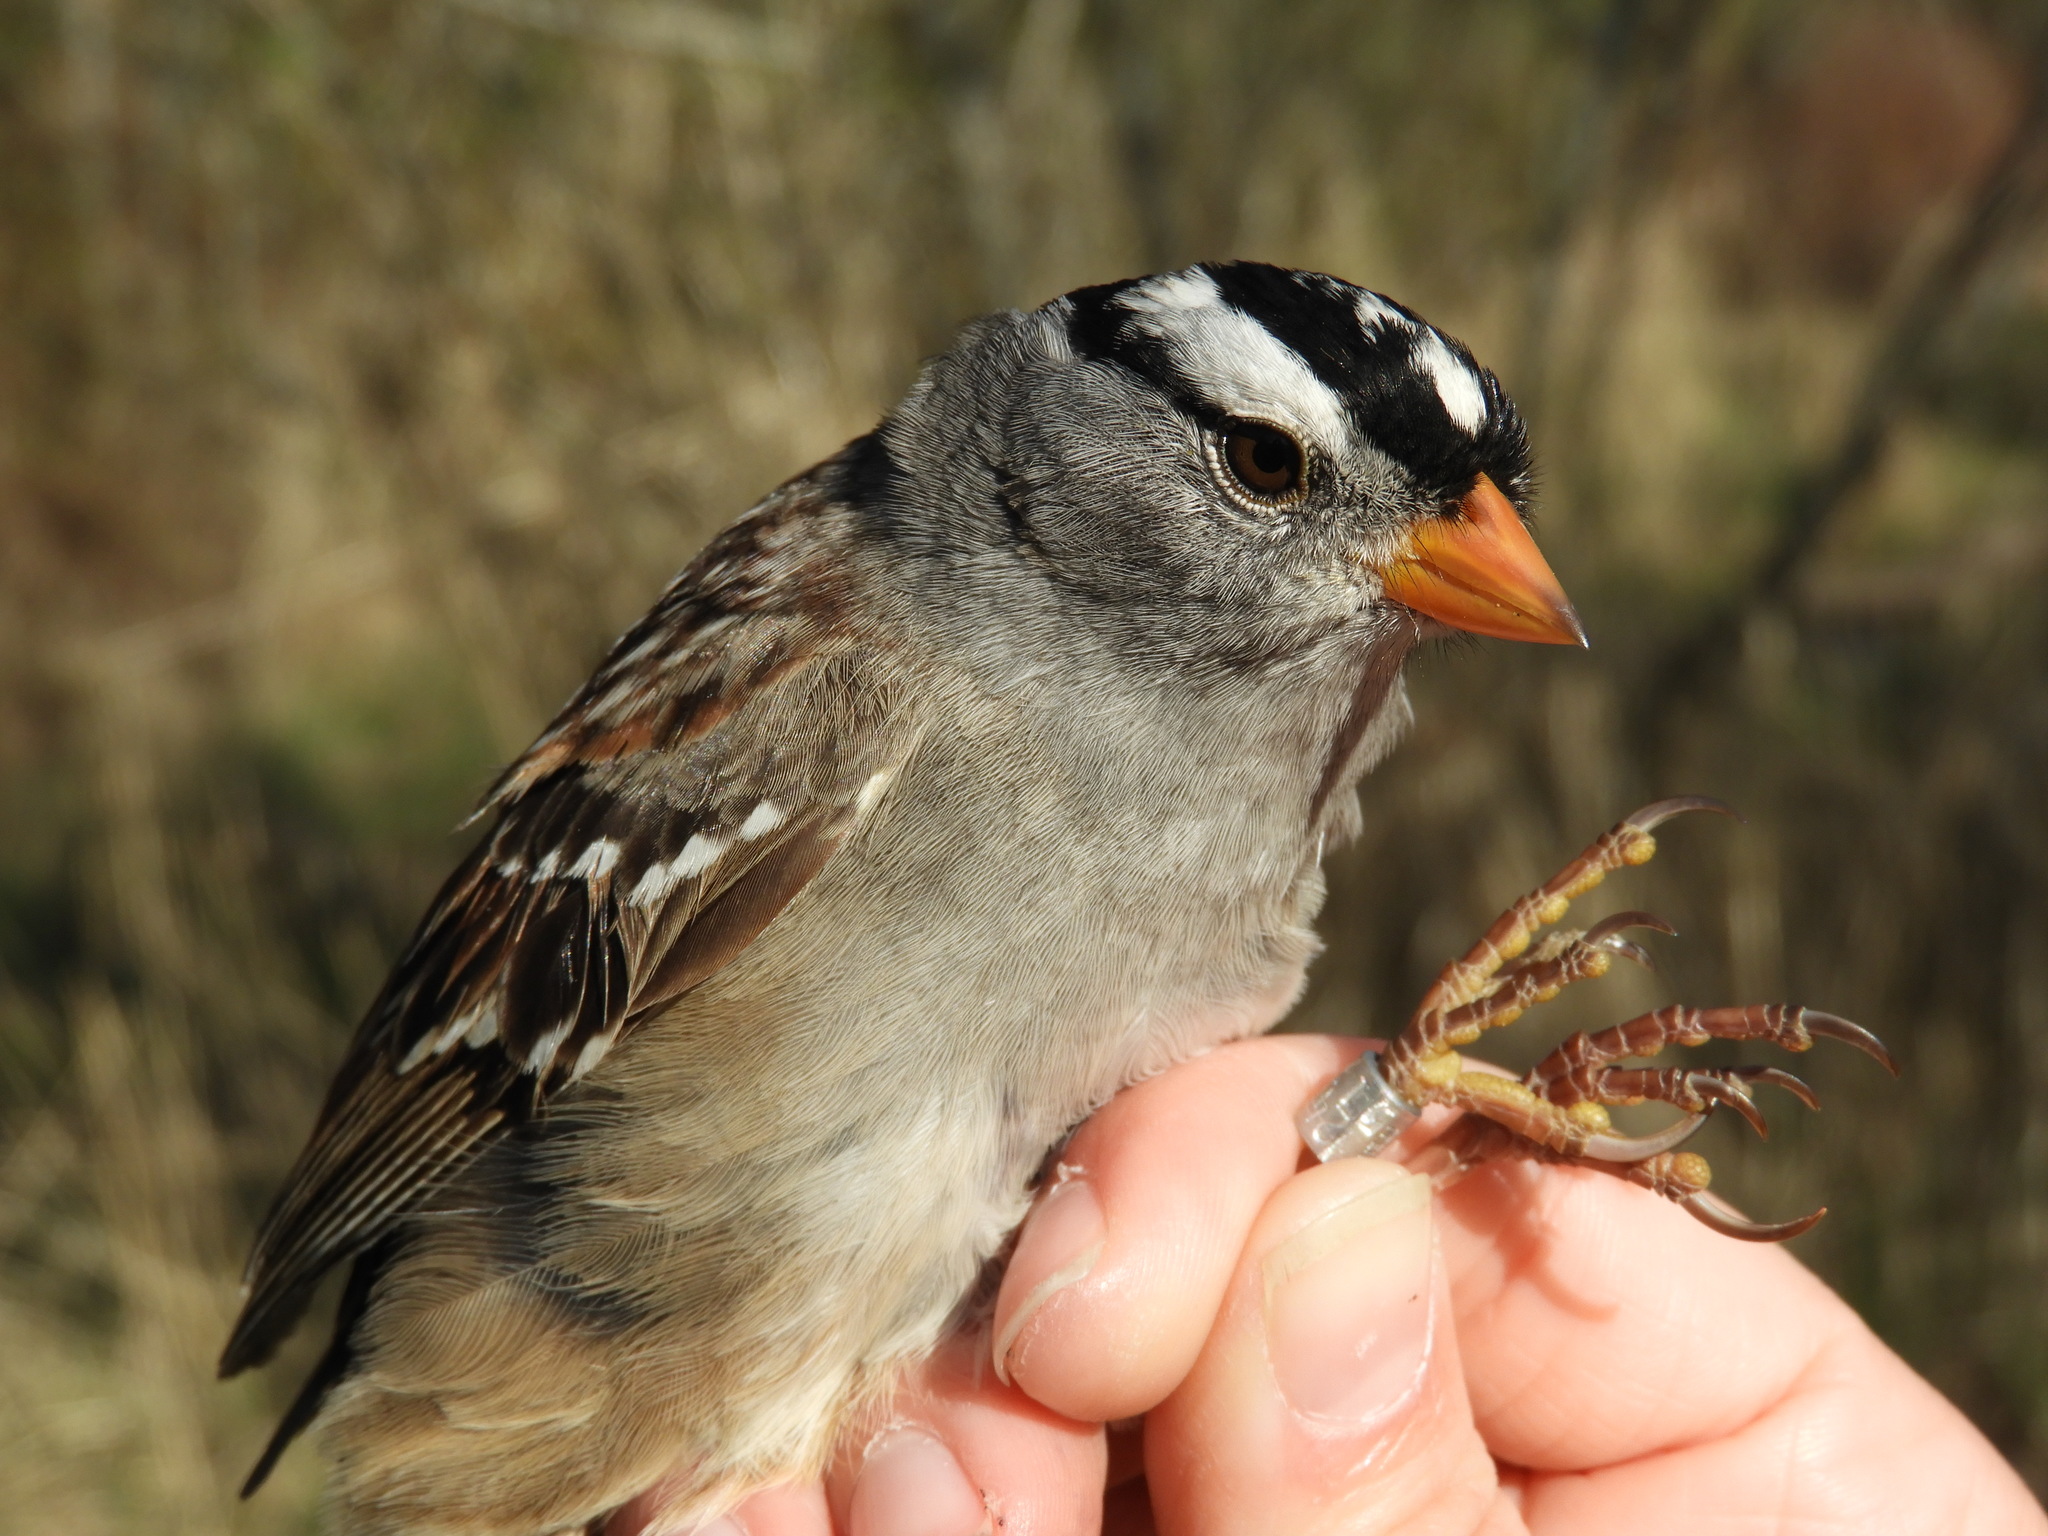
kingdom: Animalia
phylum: Chordata
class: Aves
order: Passeriformes
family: Passerellidae
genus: Zonotrichia
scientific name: Zonotrichia leucophrys
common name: White-crowned sparrow
